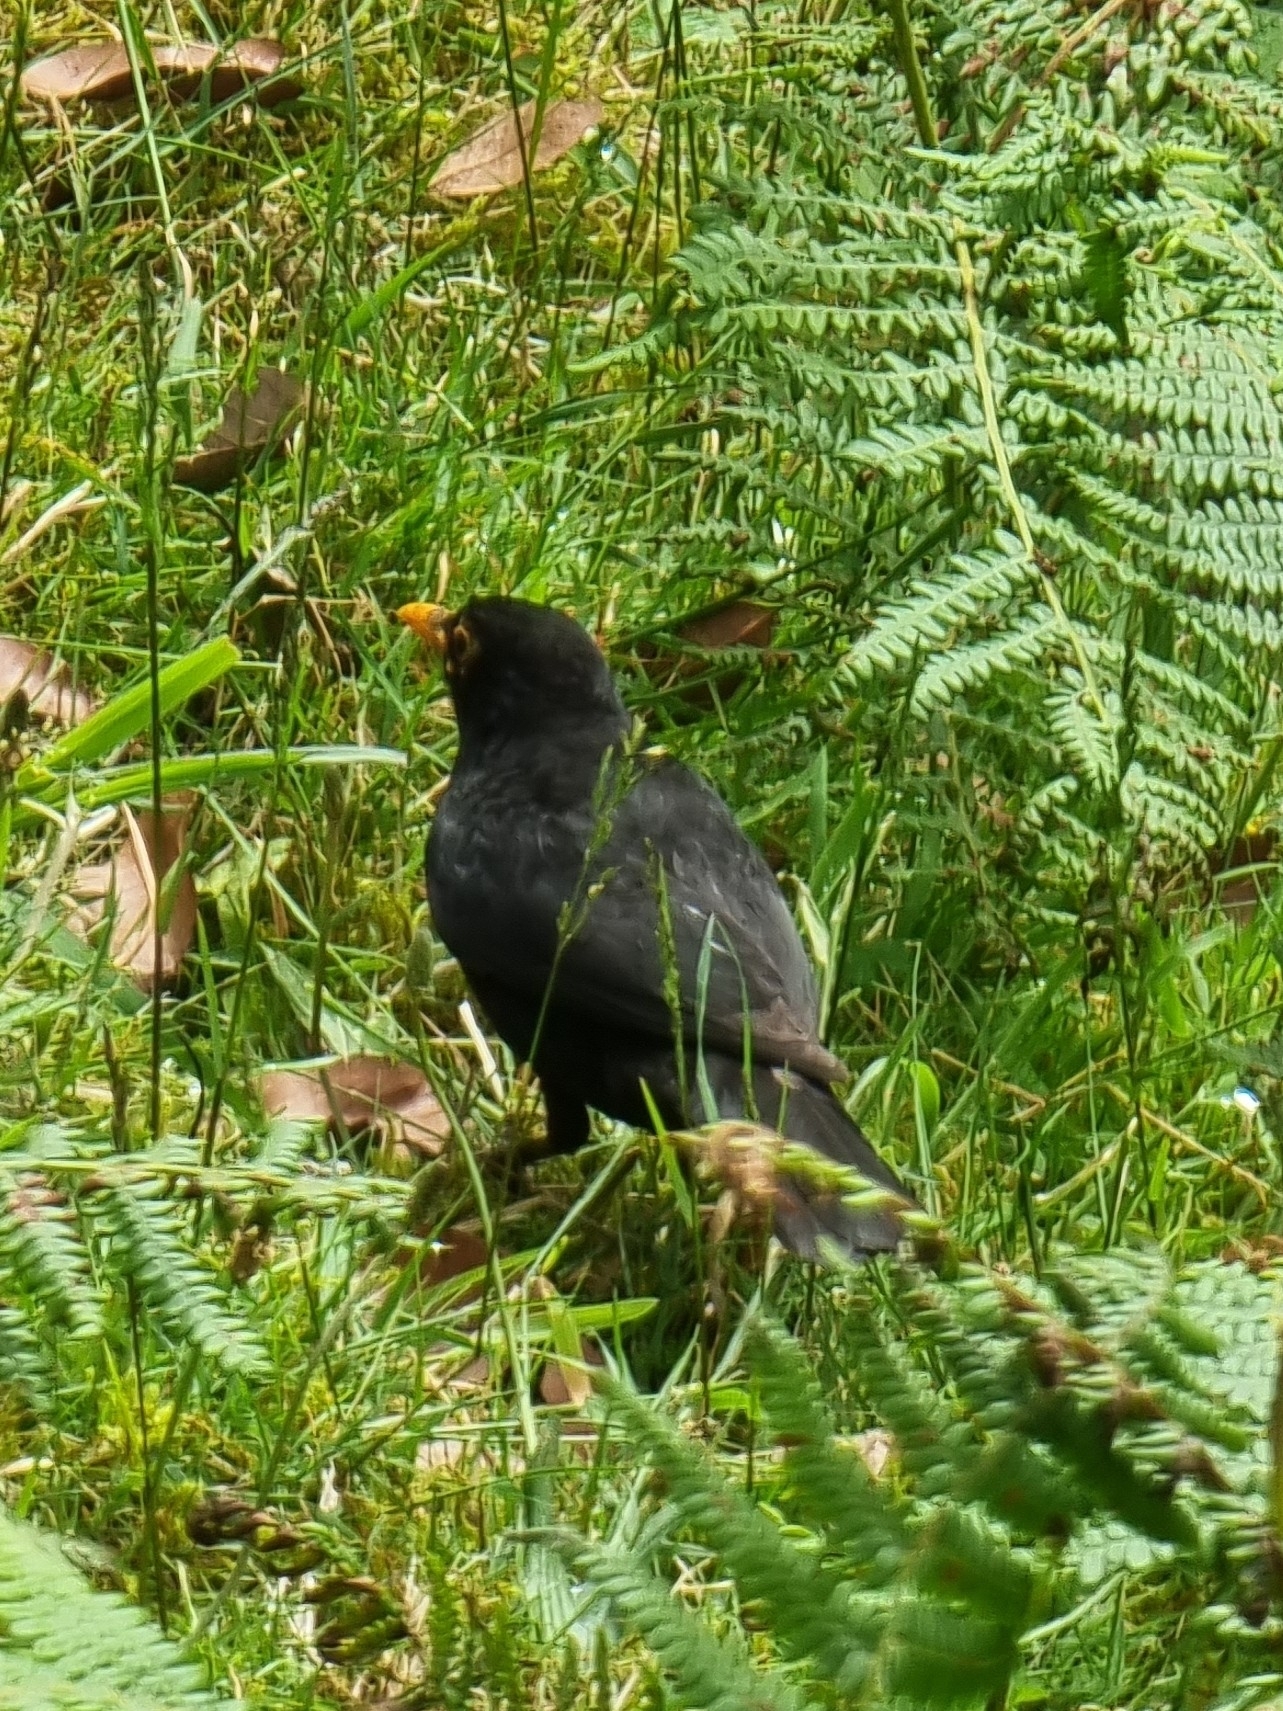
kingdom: Animalia
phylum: Chordata
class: Aves
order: Passeriformes
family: Turdidae
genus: Turdus
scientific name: Turdus merula
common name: Common blackbird
